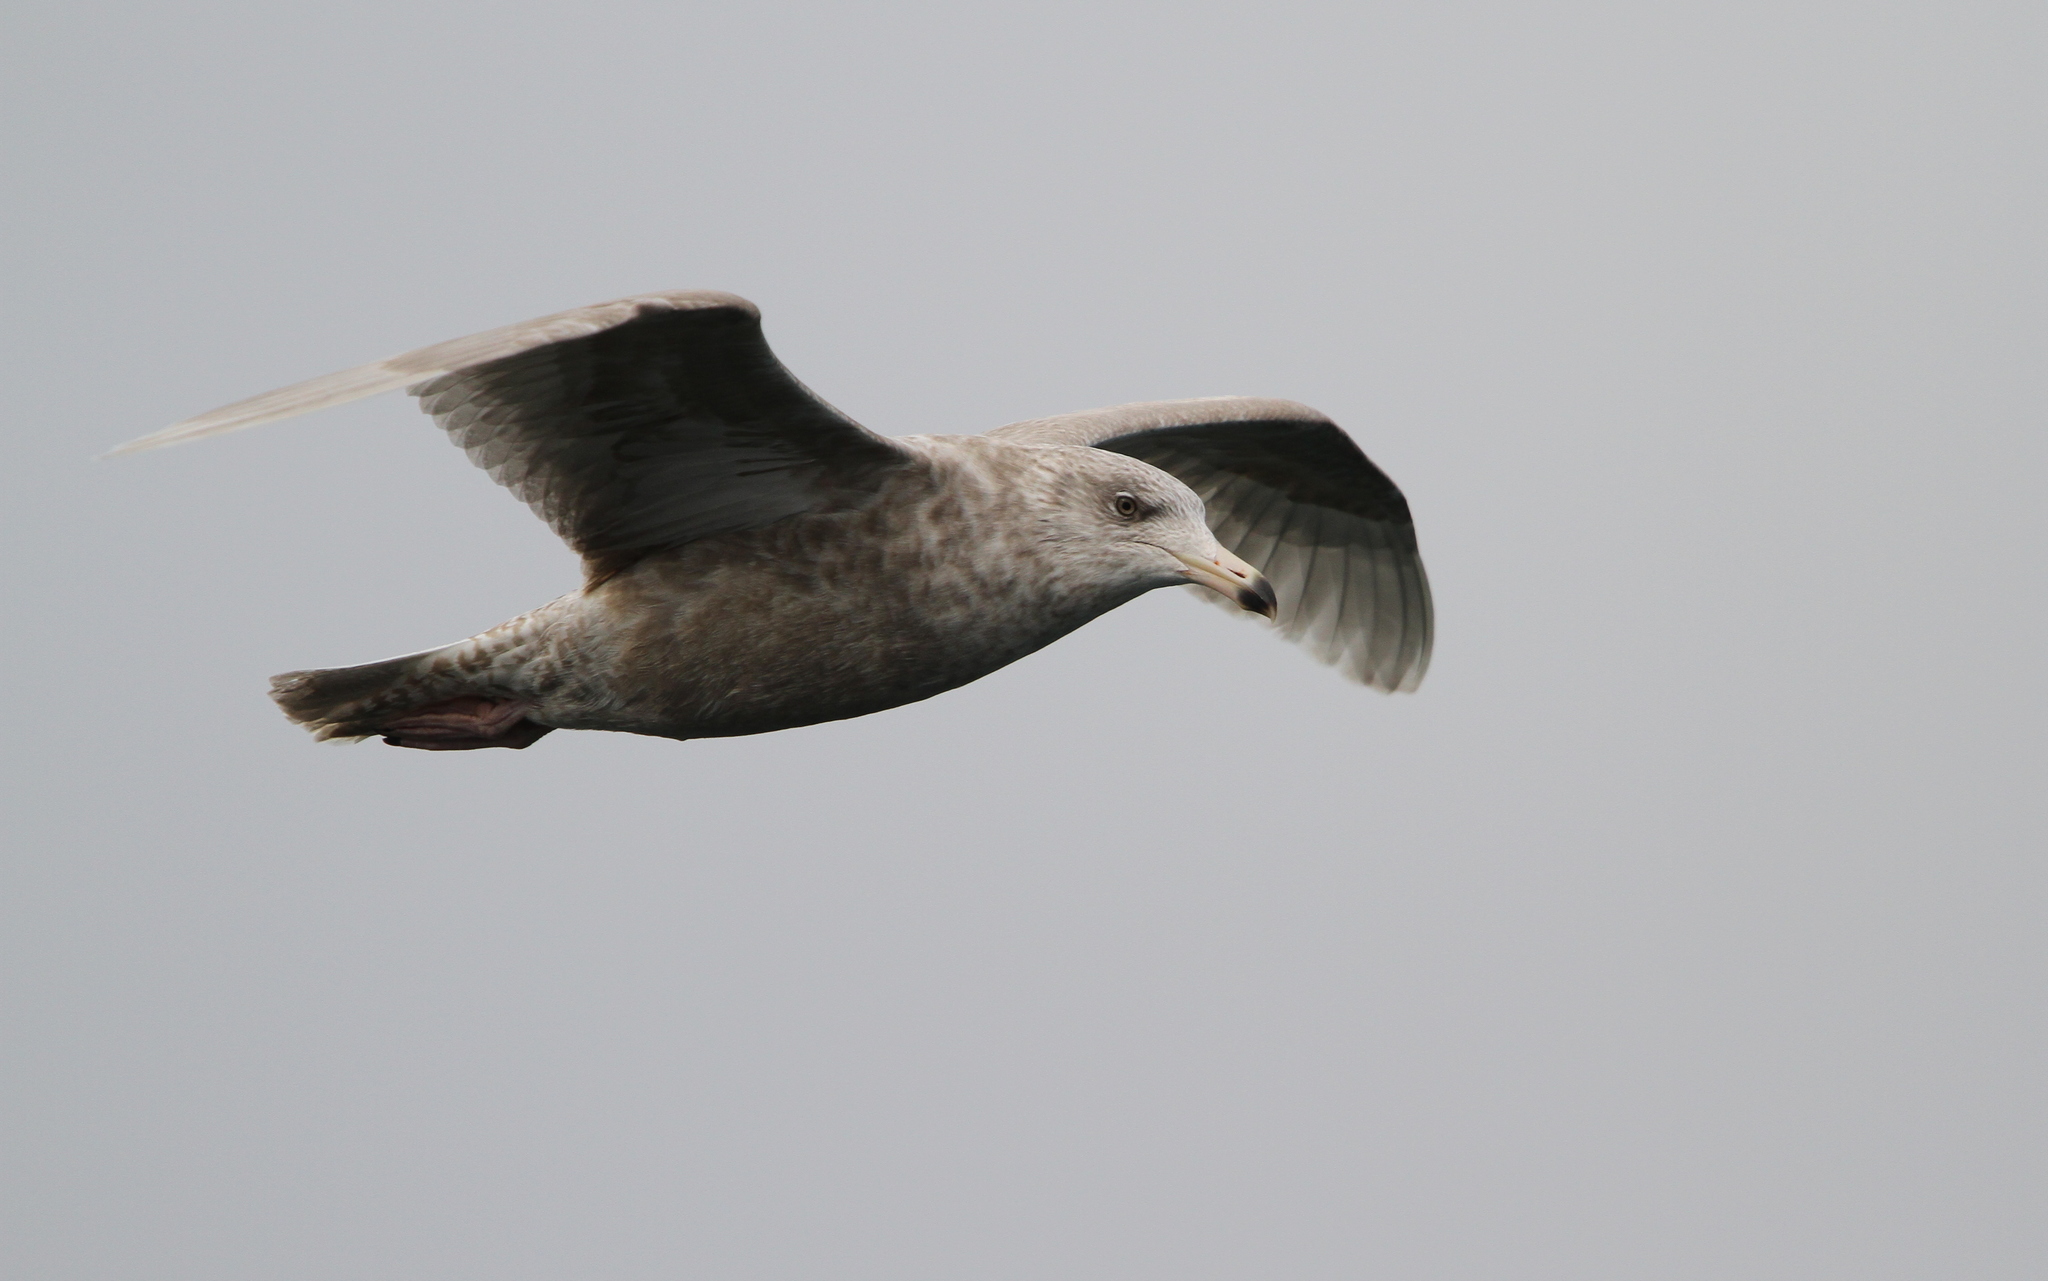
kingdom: Animalia
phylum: Chordata
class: Aves
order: Charadriiformes
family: Laridae
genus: Larus
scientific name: Larus hyperboreus
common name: Glaucous gull
